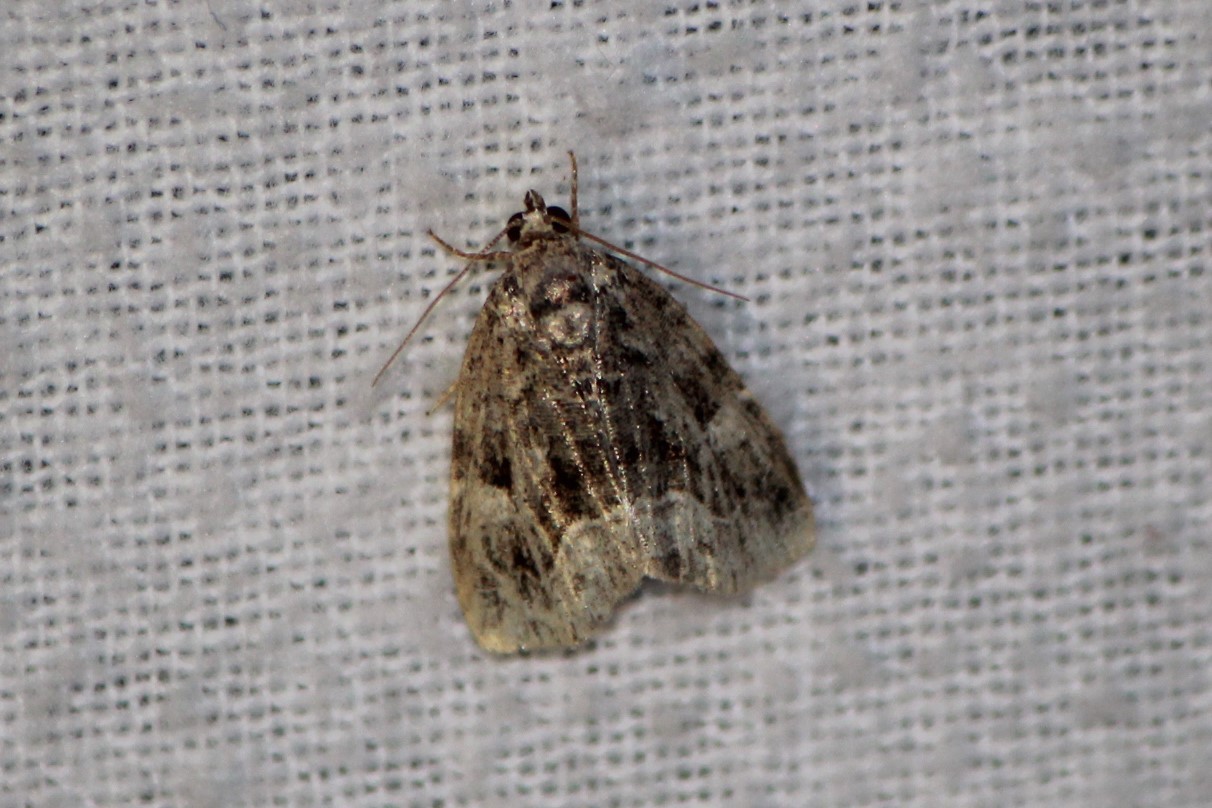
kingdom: Animalia
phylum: Arthropoda
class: Insecta
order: Lepidoptera
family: Noctuidae
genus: Protodeltote
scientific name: Protodeltote muscosula
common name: Large mossy glyph
